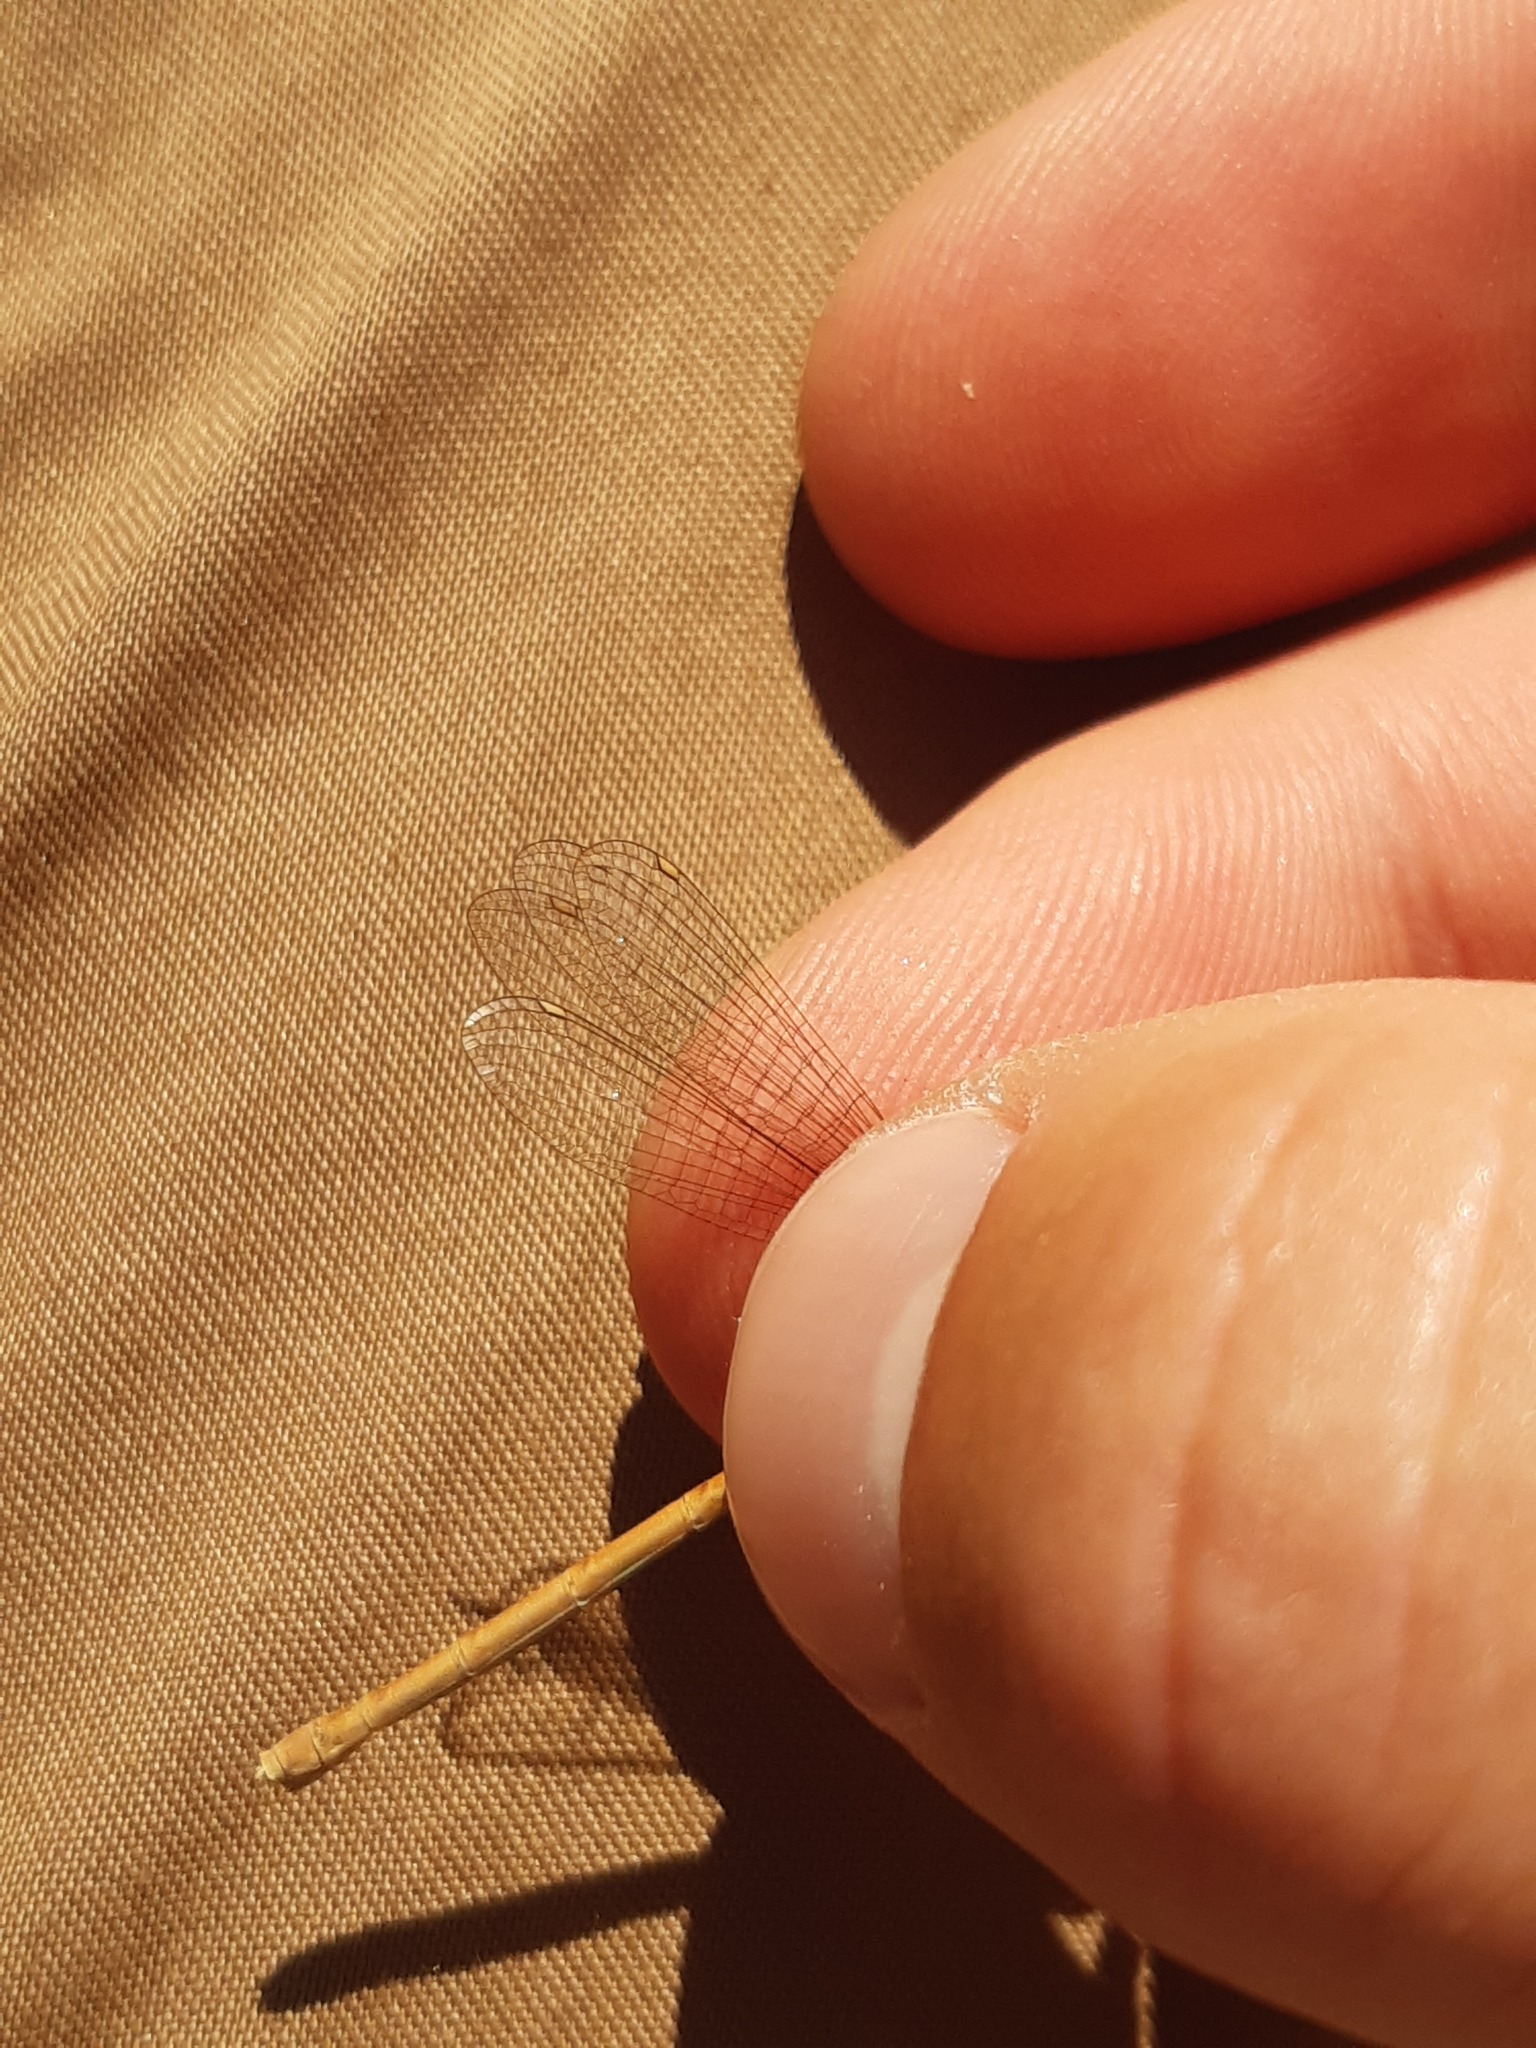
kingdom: Animalia
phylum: Arthropoda
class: Insecta
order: Odonata
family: Platycnemididae
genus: Platycnemis
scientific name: Platycnemis acutipennis
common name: Orange featherleg
